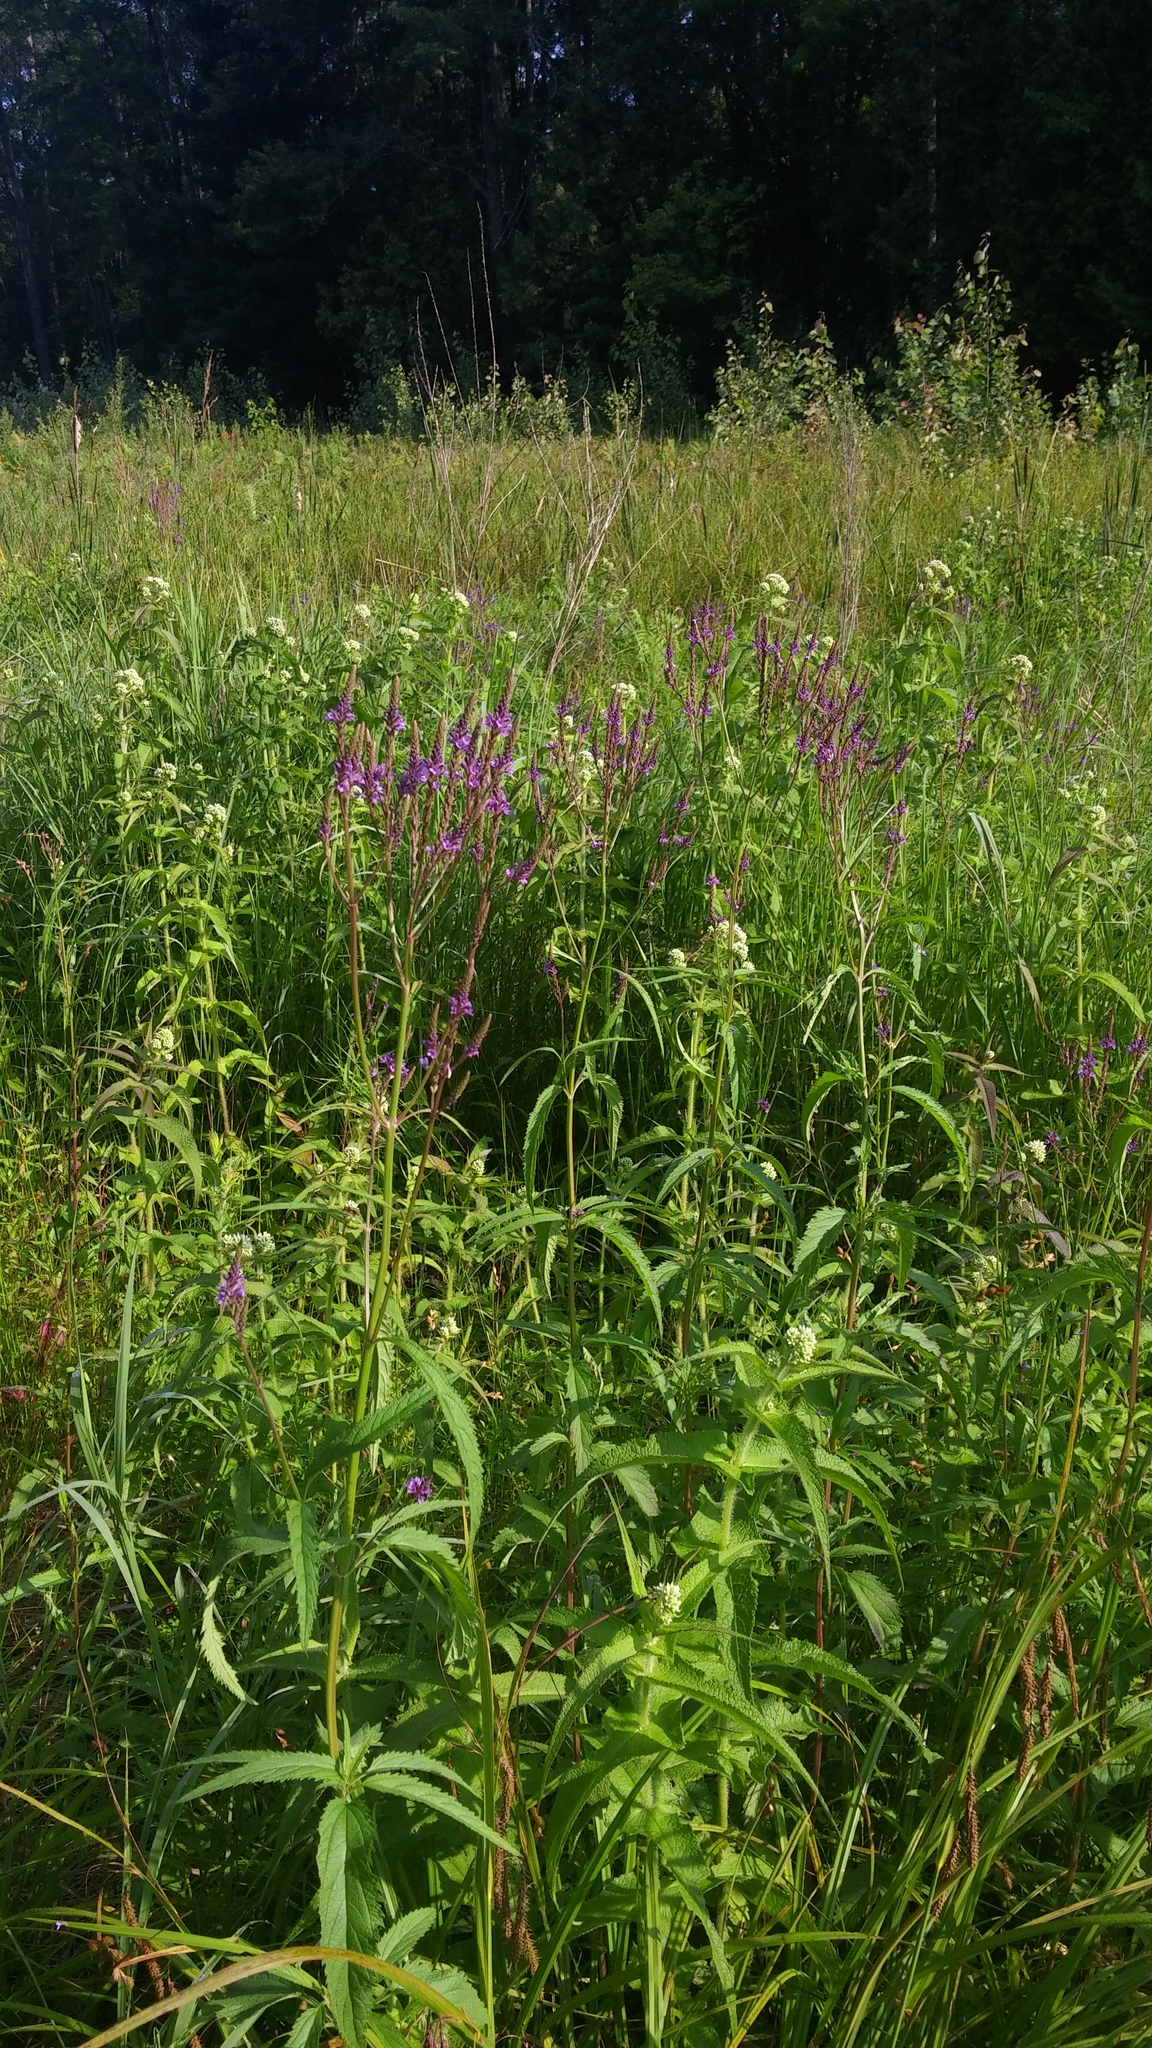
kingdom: Plantae
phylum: Tracheophyta
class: Magnoliopsida
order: Lamiales
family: Verbenaceae
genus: Verbena
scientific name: Verbena hastata
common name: American blue vervain
